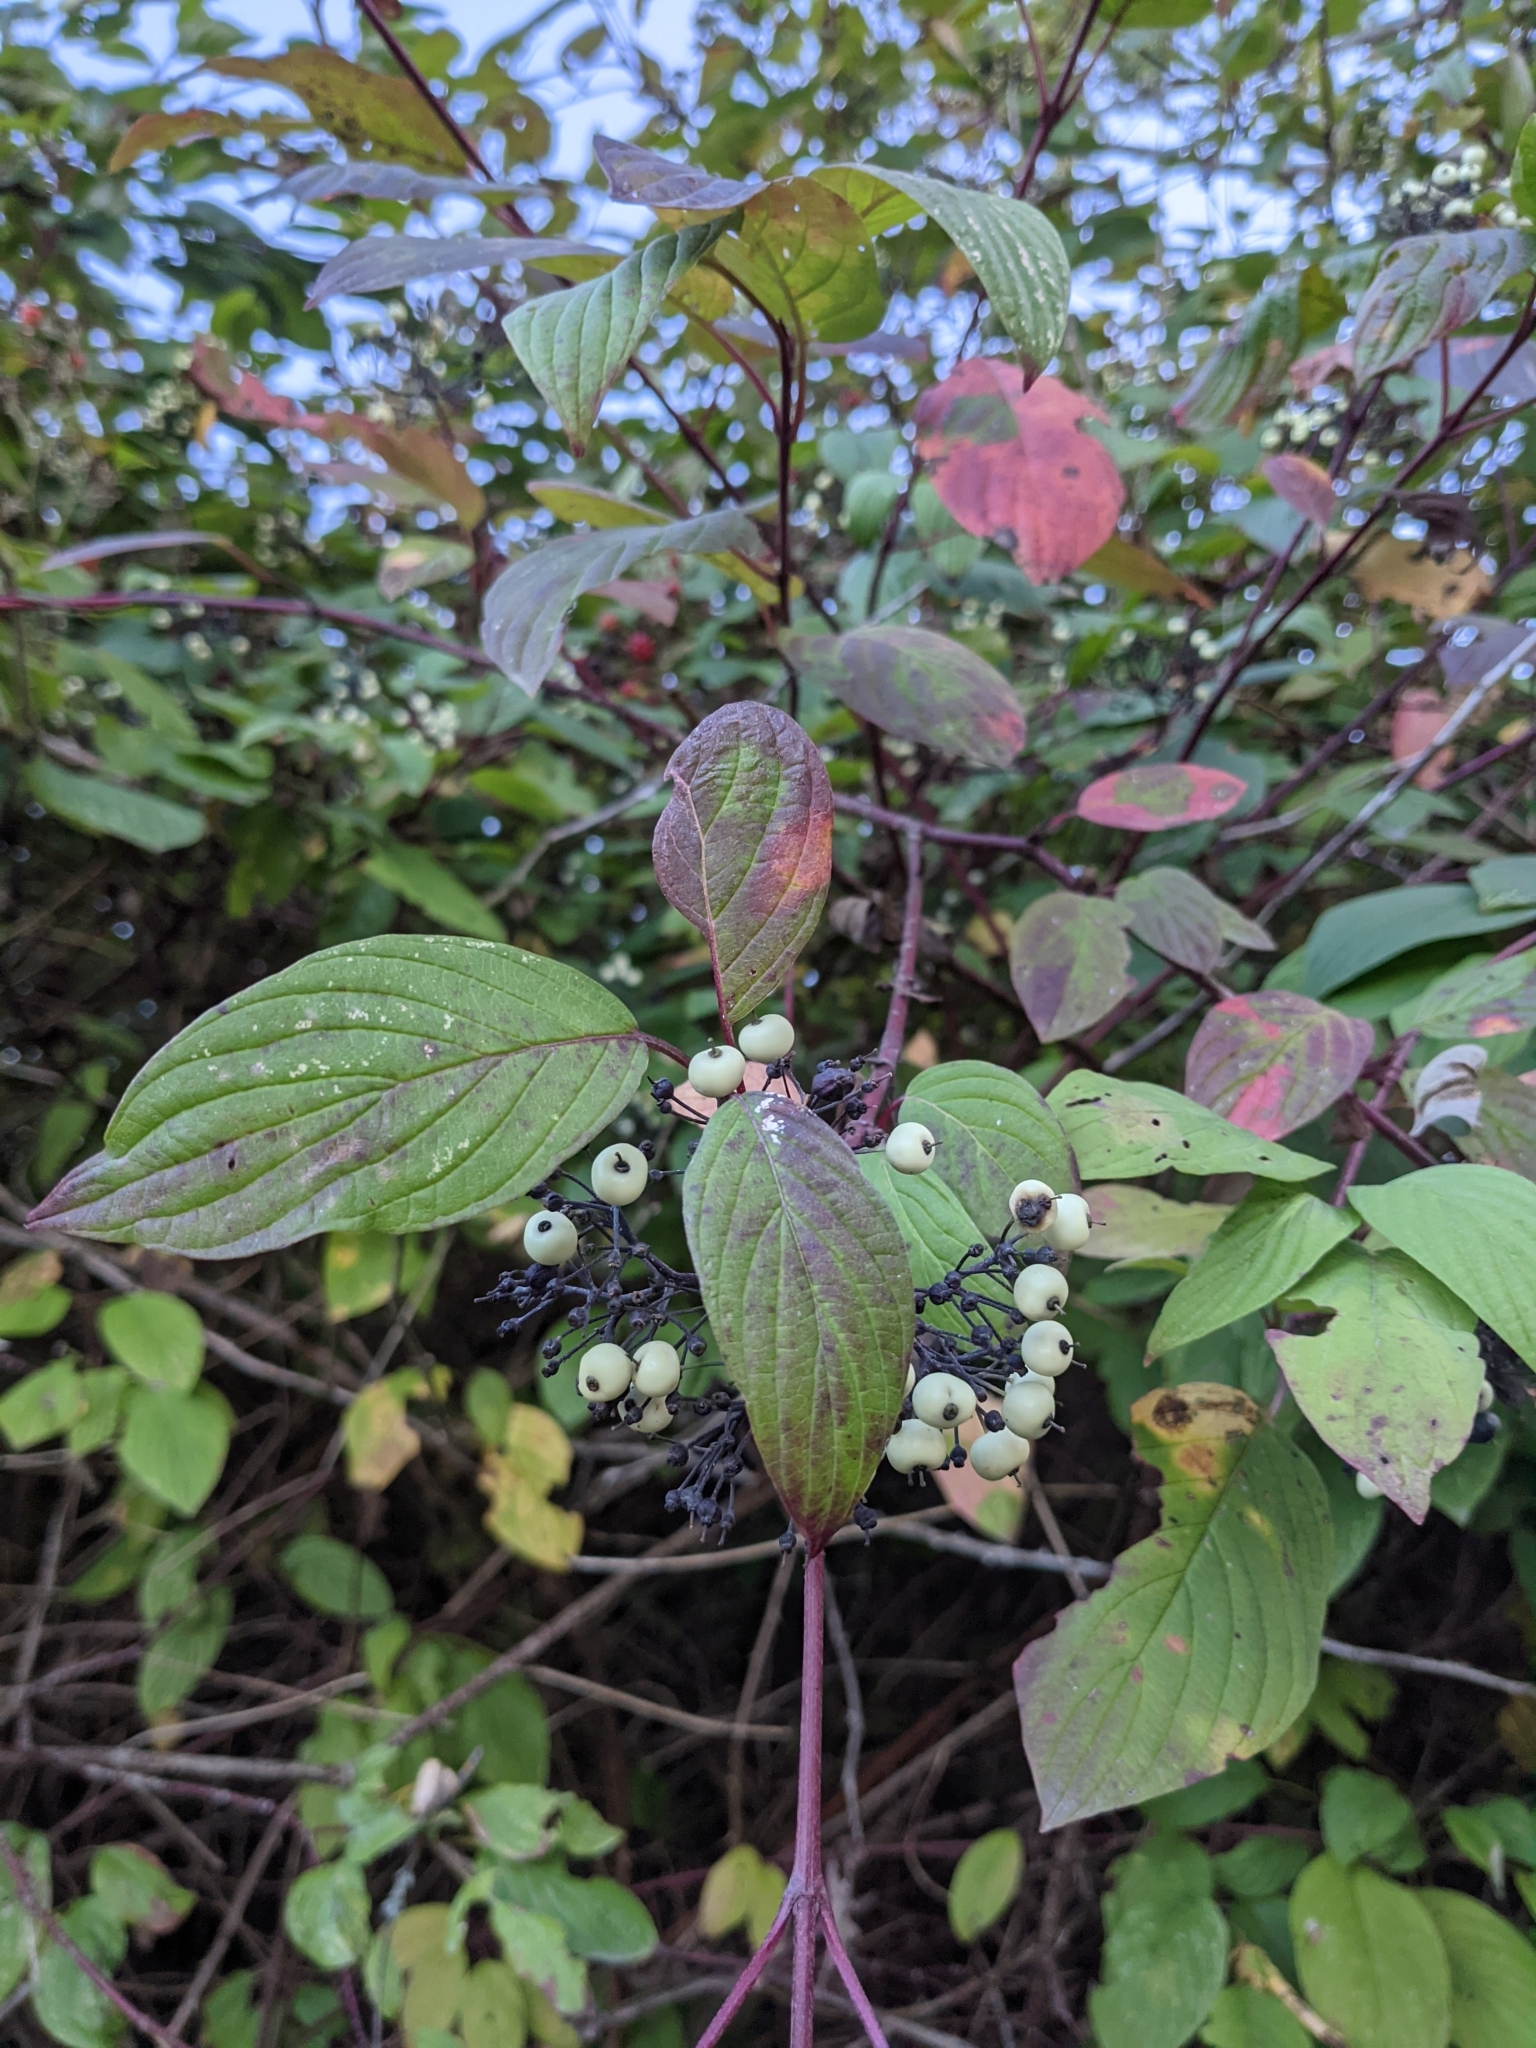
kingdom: Plantae
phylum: Tracheophyta
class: Magnoliopsida
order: Cornales
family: Cornaceae
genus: Cornus
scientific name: Cornus sericea
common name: Red-osier dogwood
